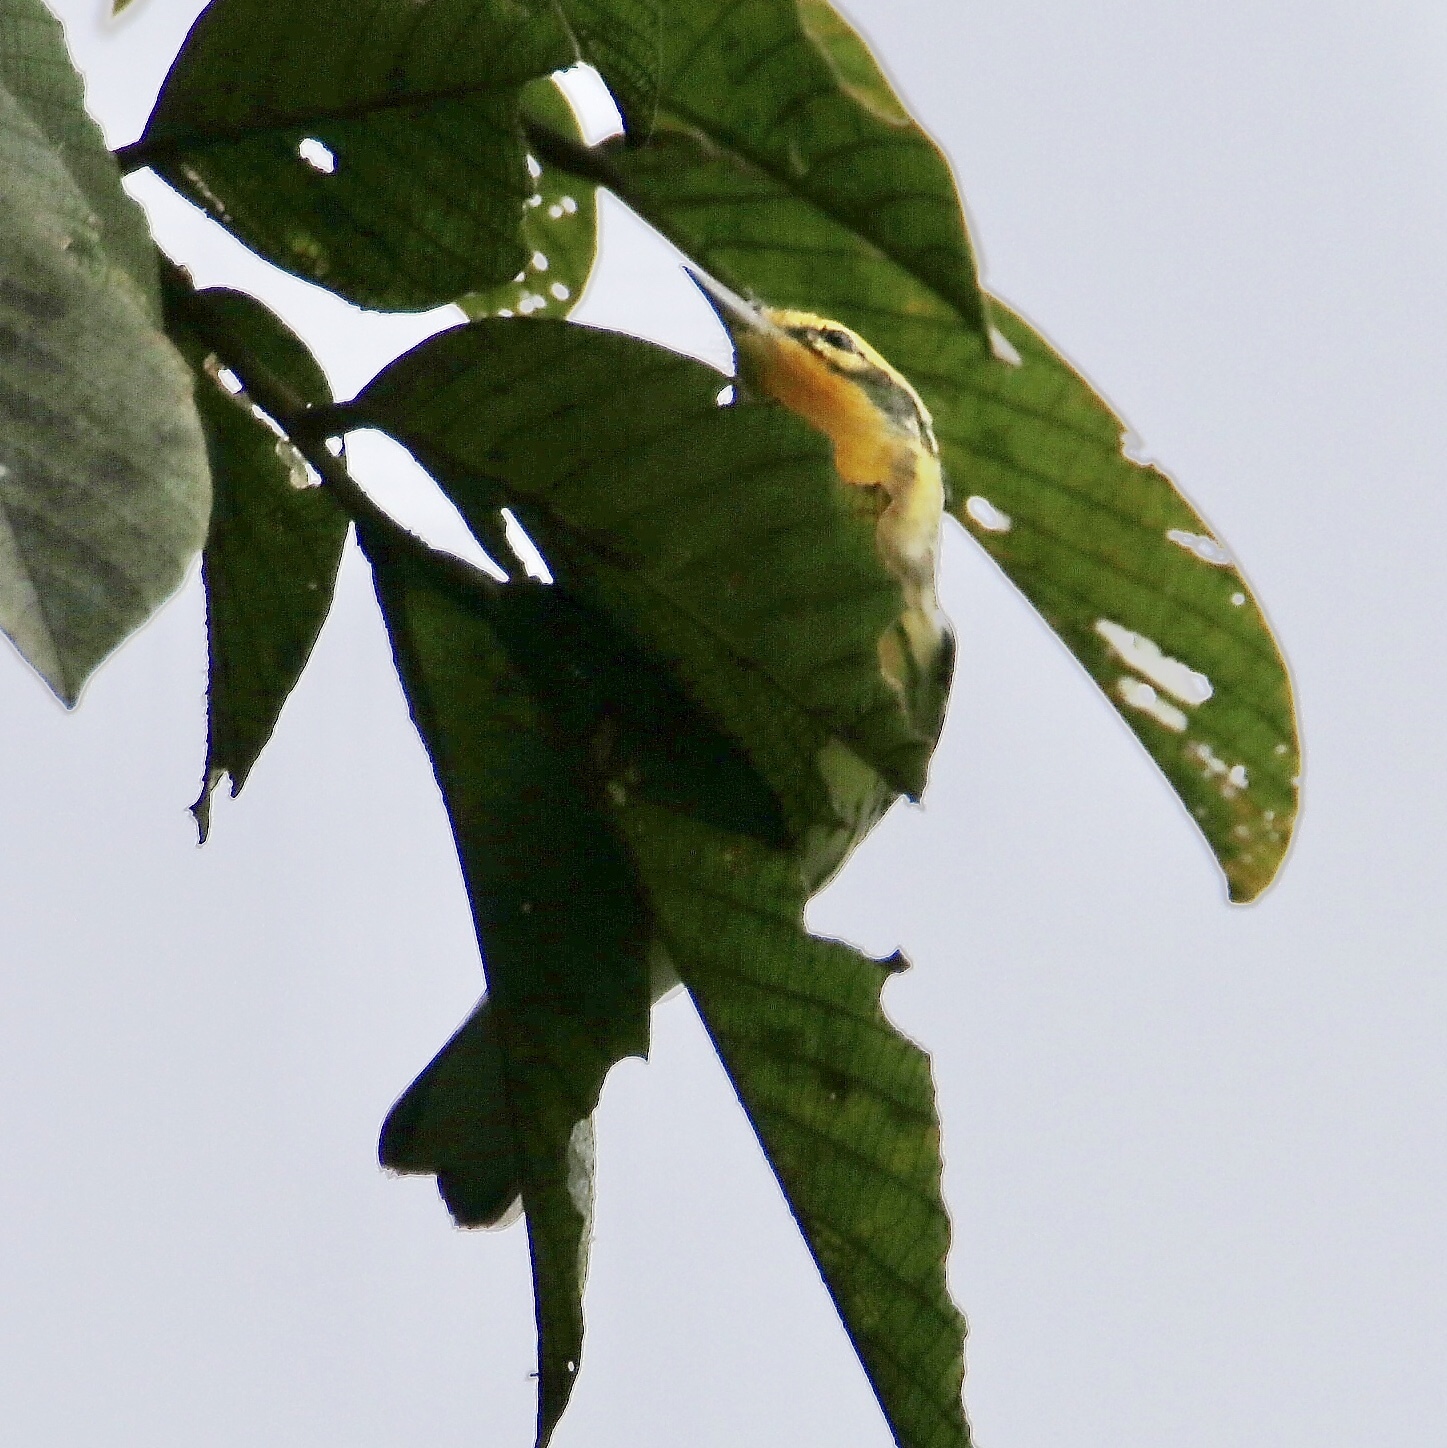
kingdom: Animalia
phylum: Chordata
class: Aves
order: Passeriformes
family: Parulidae
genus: Setophaga
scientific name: Setophaga fusca
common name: Blackburnian warbler
